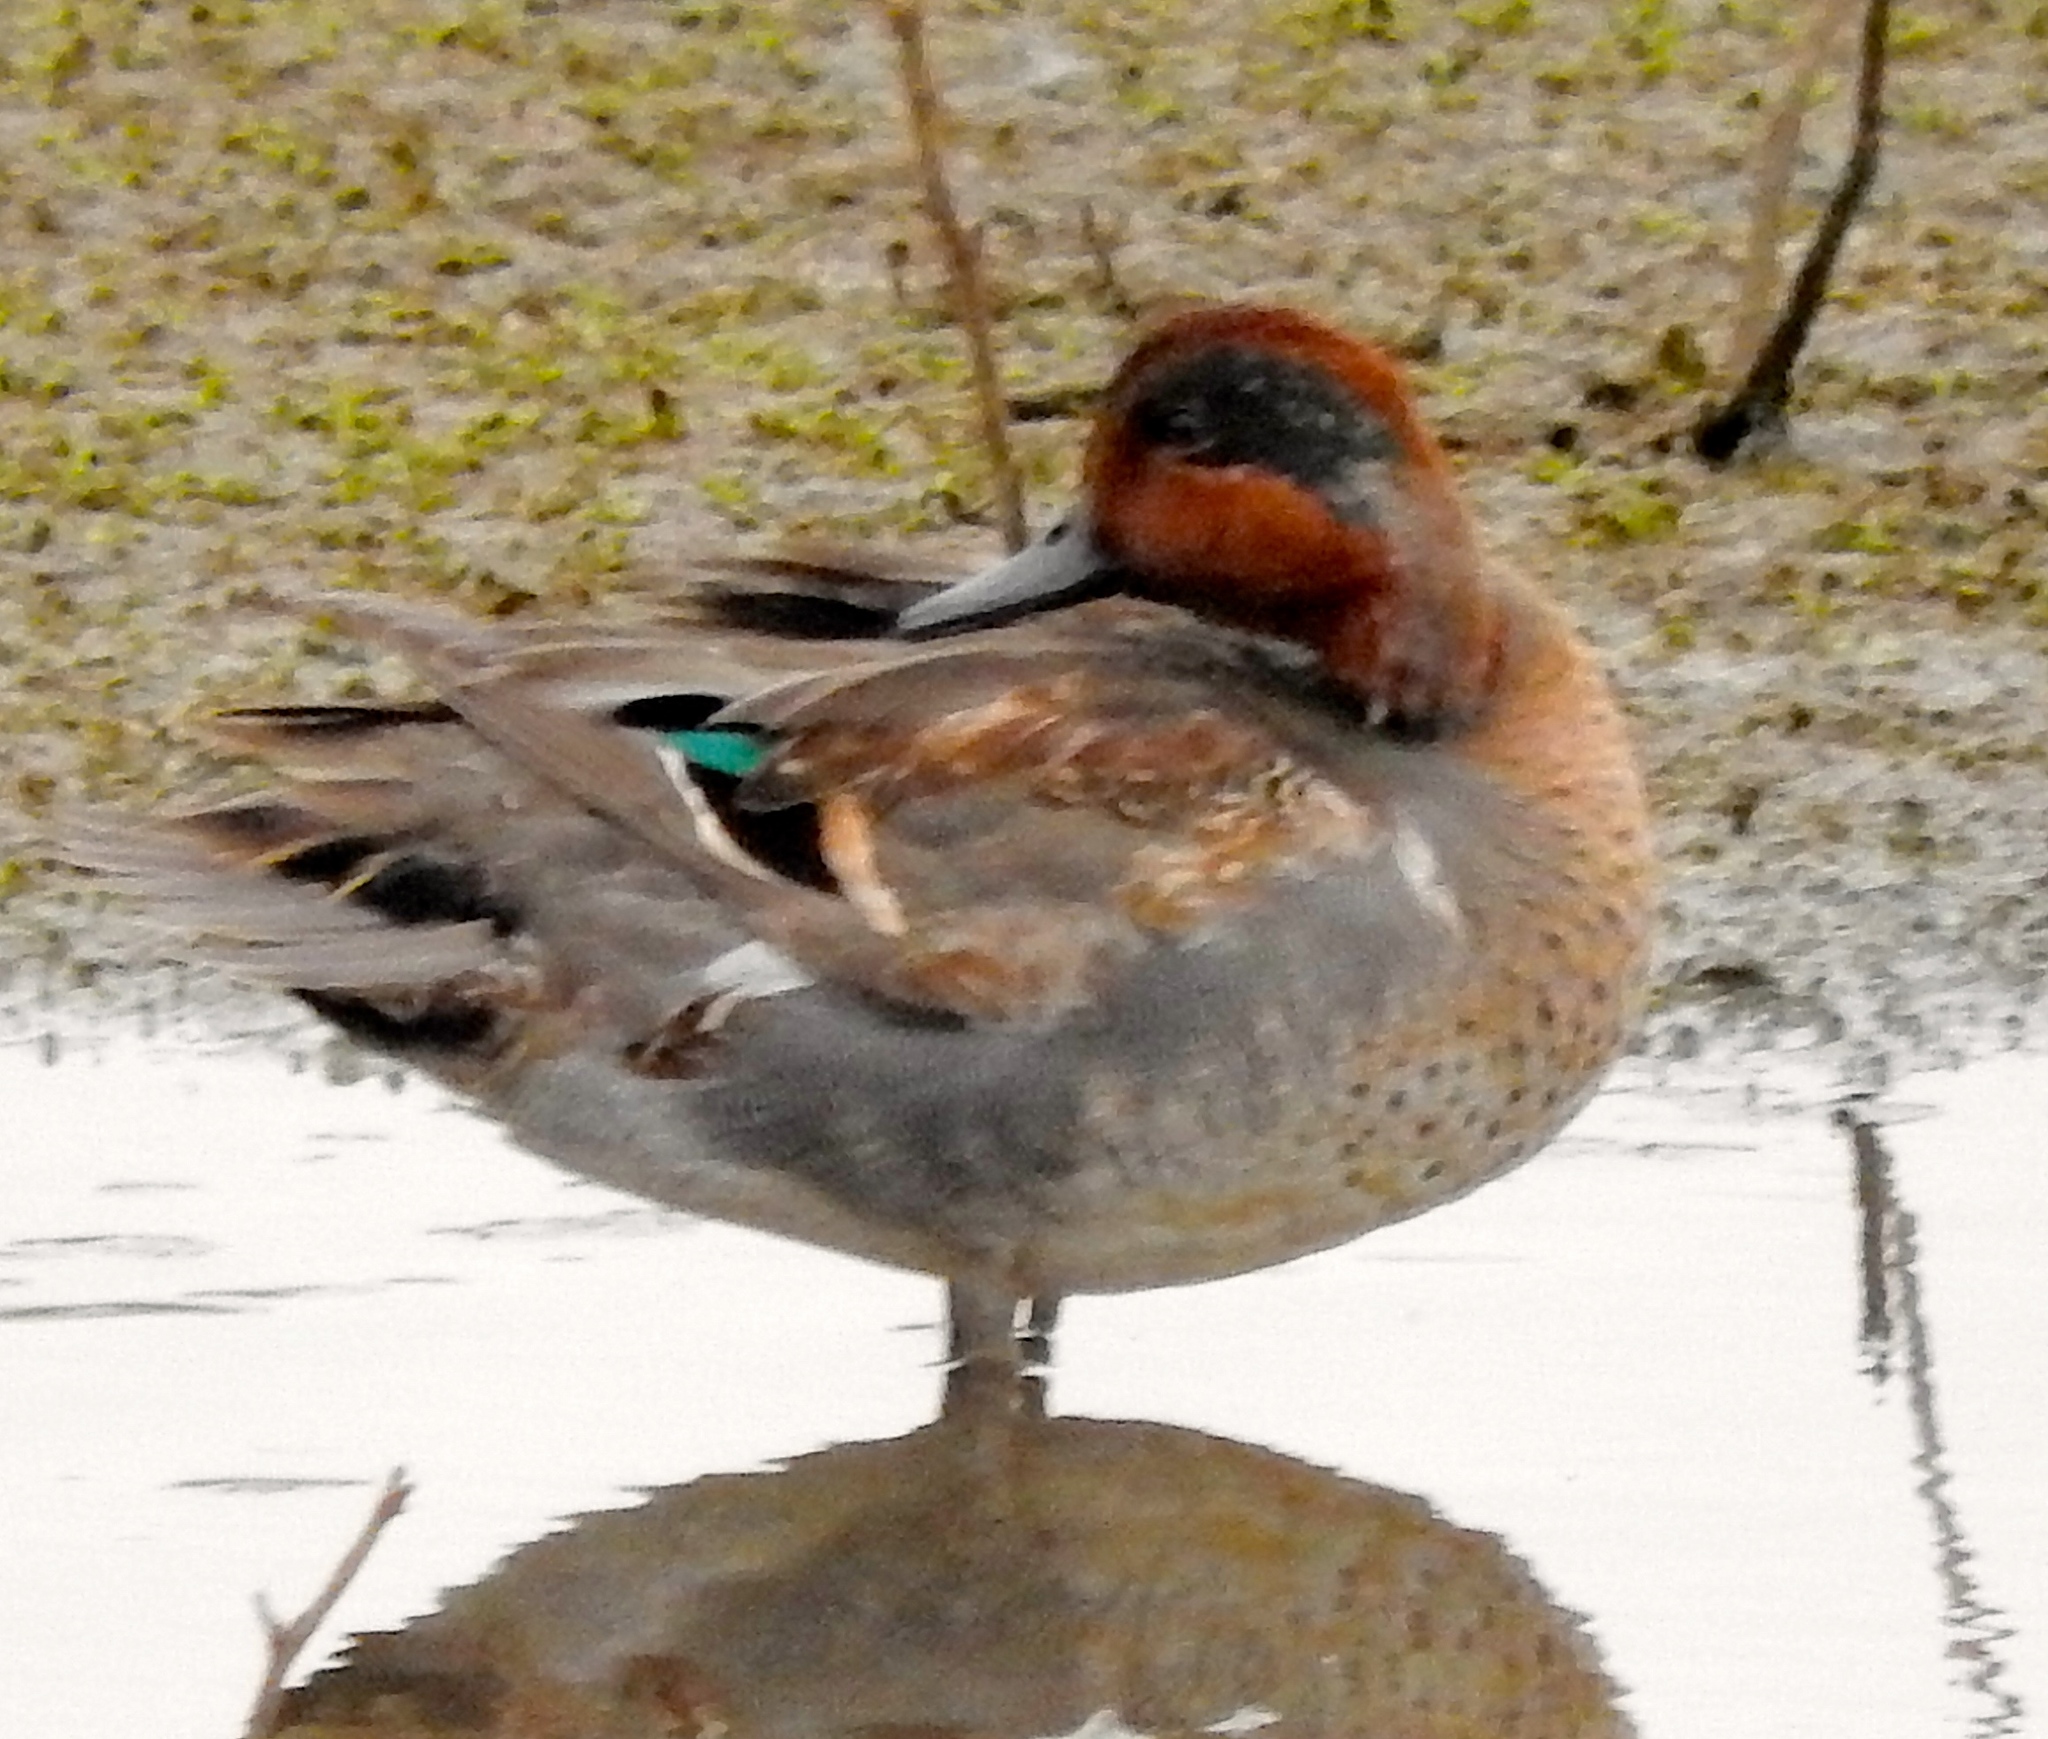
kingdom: Animalia
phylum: Chordata
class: Aves
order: Anseriformes
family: Anatidae
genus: Anas
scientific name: Anas crecca
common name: Eurasian teal
